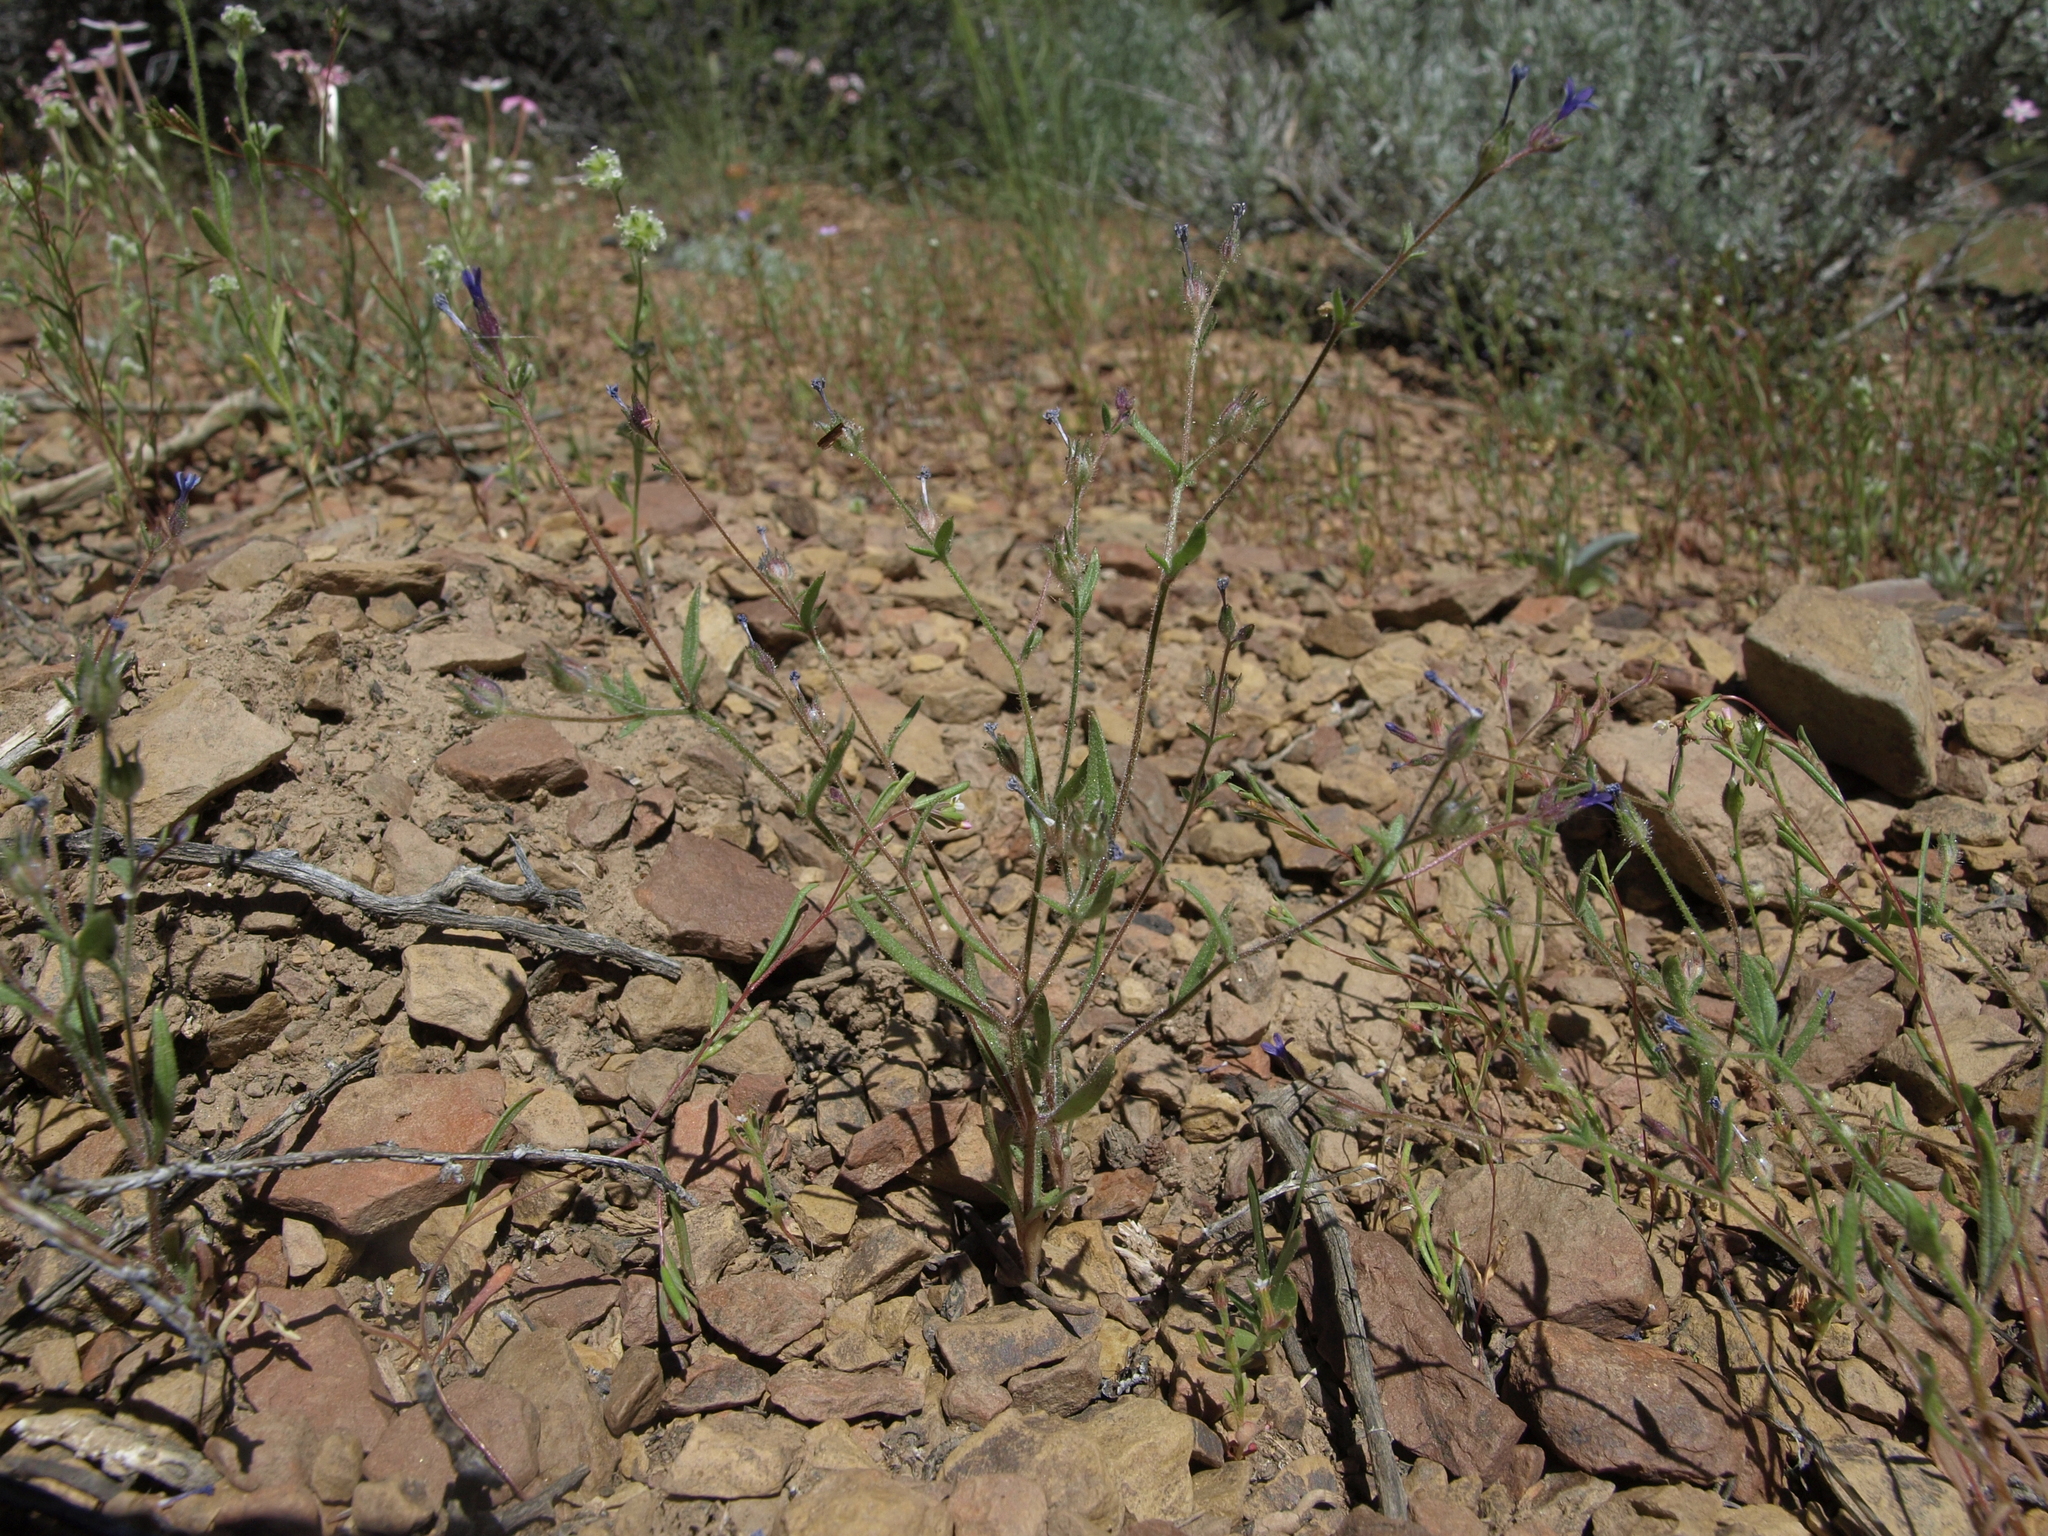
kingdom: Plantae
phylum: Tracheophyta
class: Magnoliopsida
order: Ericales
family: Polemoniaceae
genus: Allophyllum
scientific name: Allophyllum gilioides
